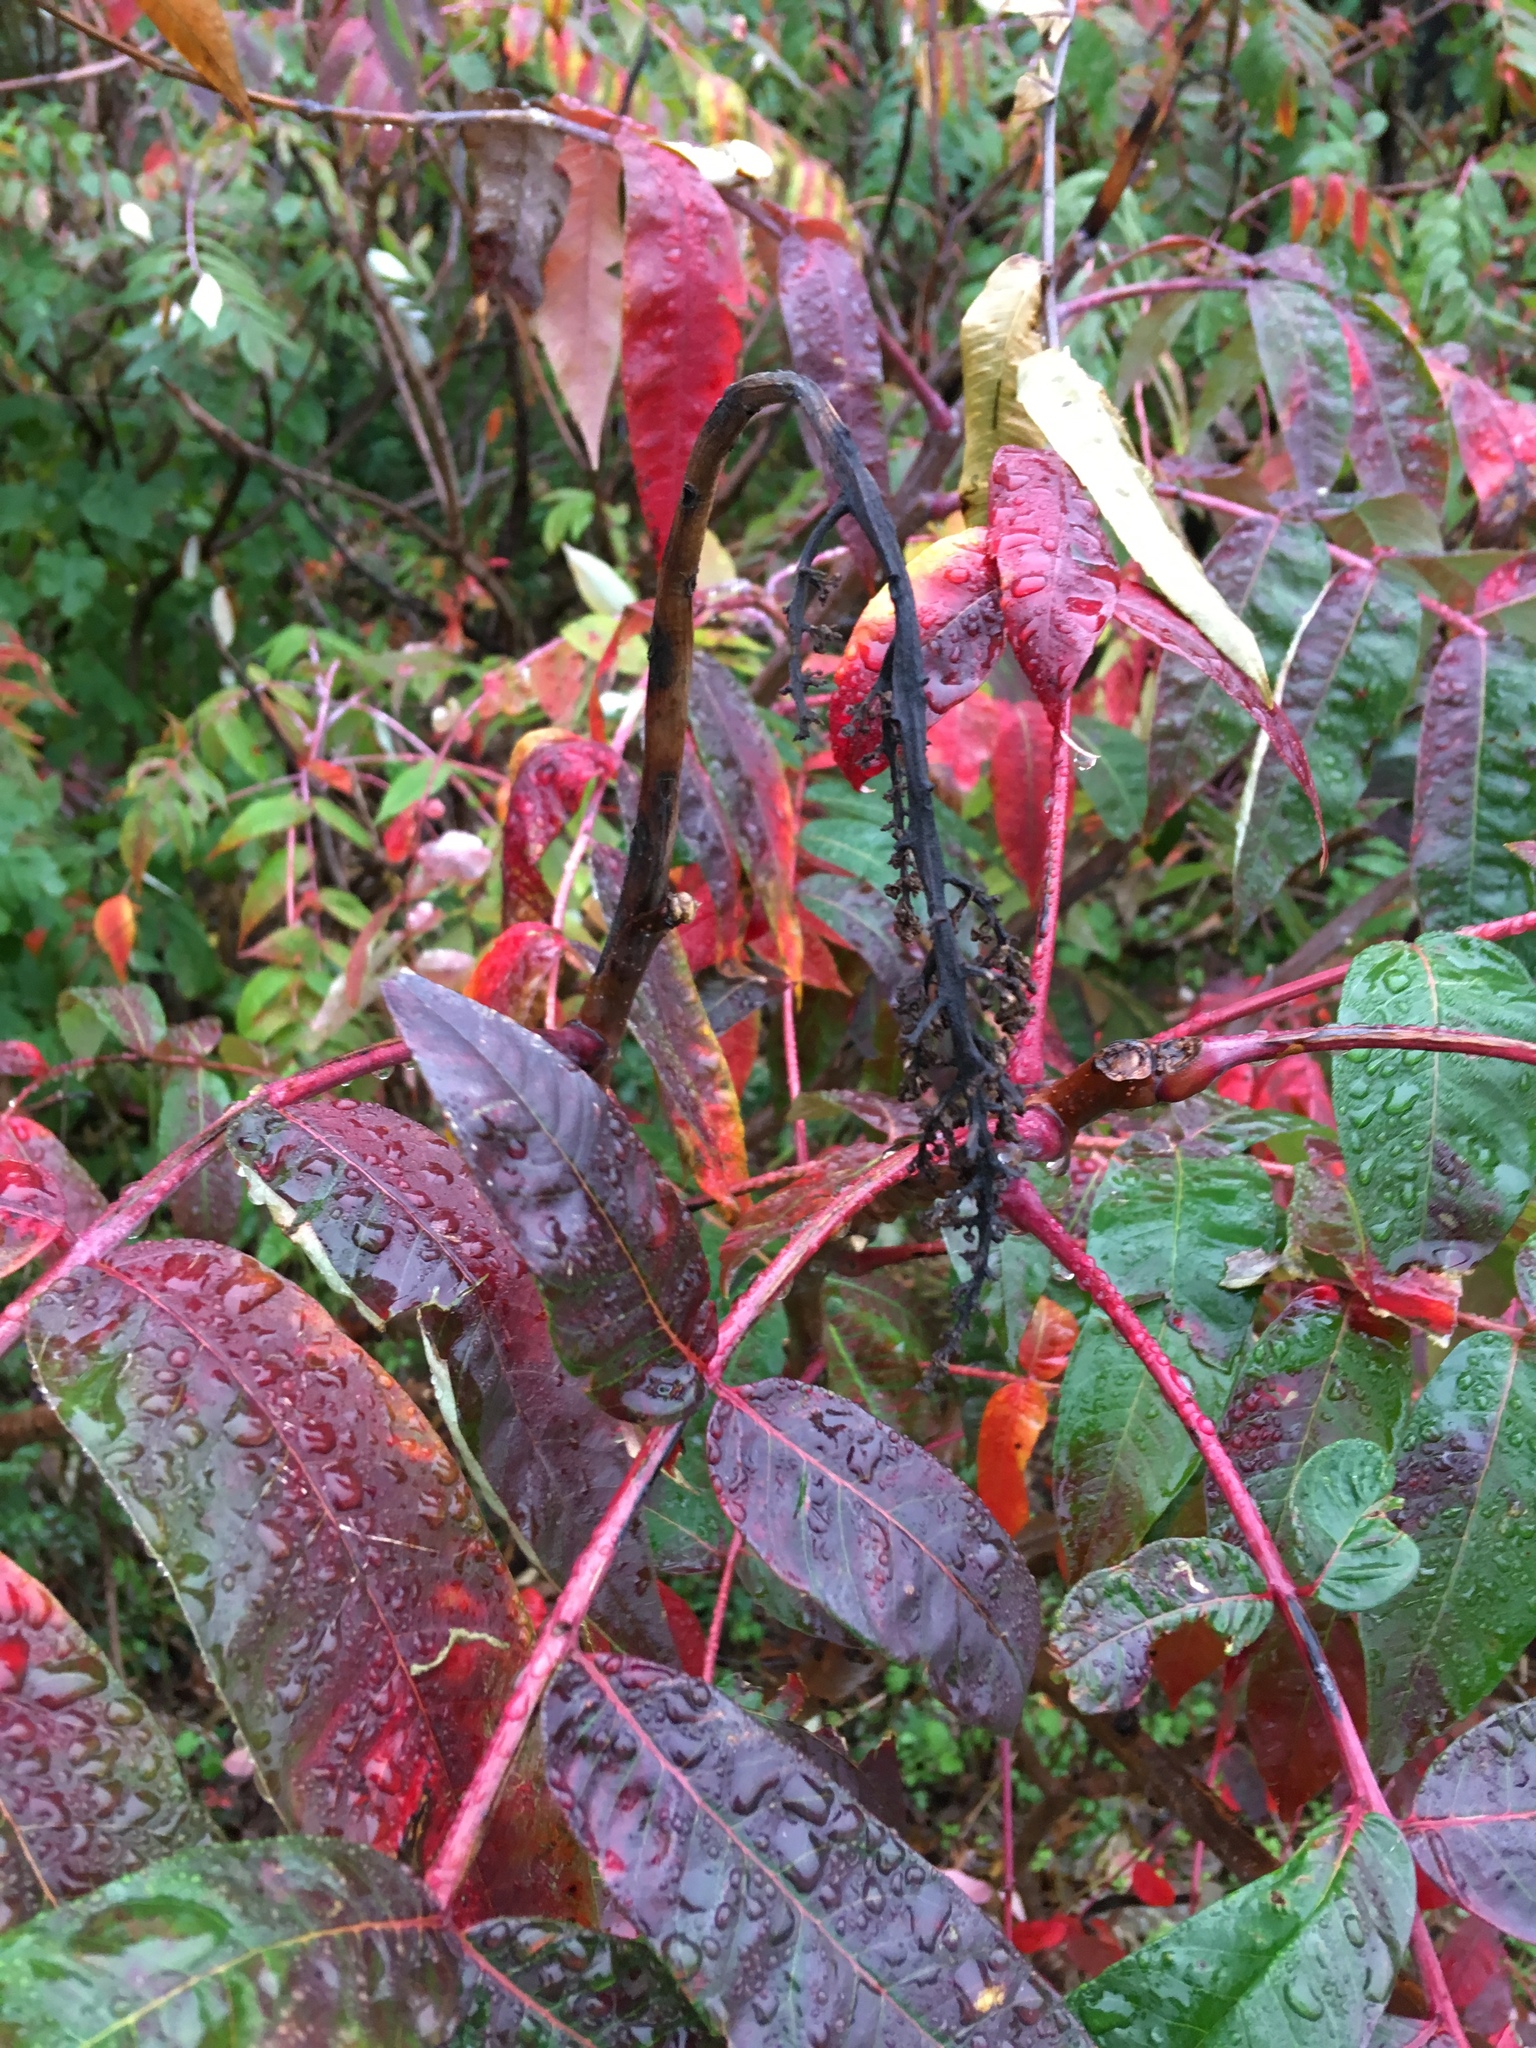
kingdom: Plantae
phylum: Tracheophyta
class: Magnoliopsida
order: Sapindales
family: Anacardiaceae
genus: Rhus
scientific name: Rhus glabra
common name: Scarlet sumac
